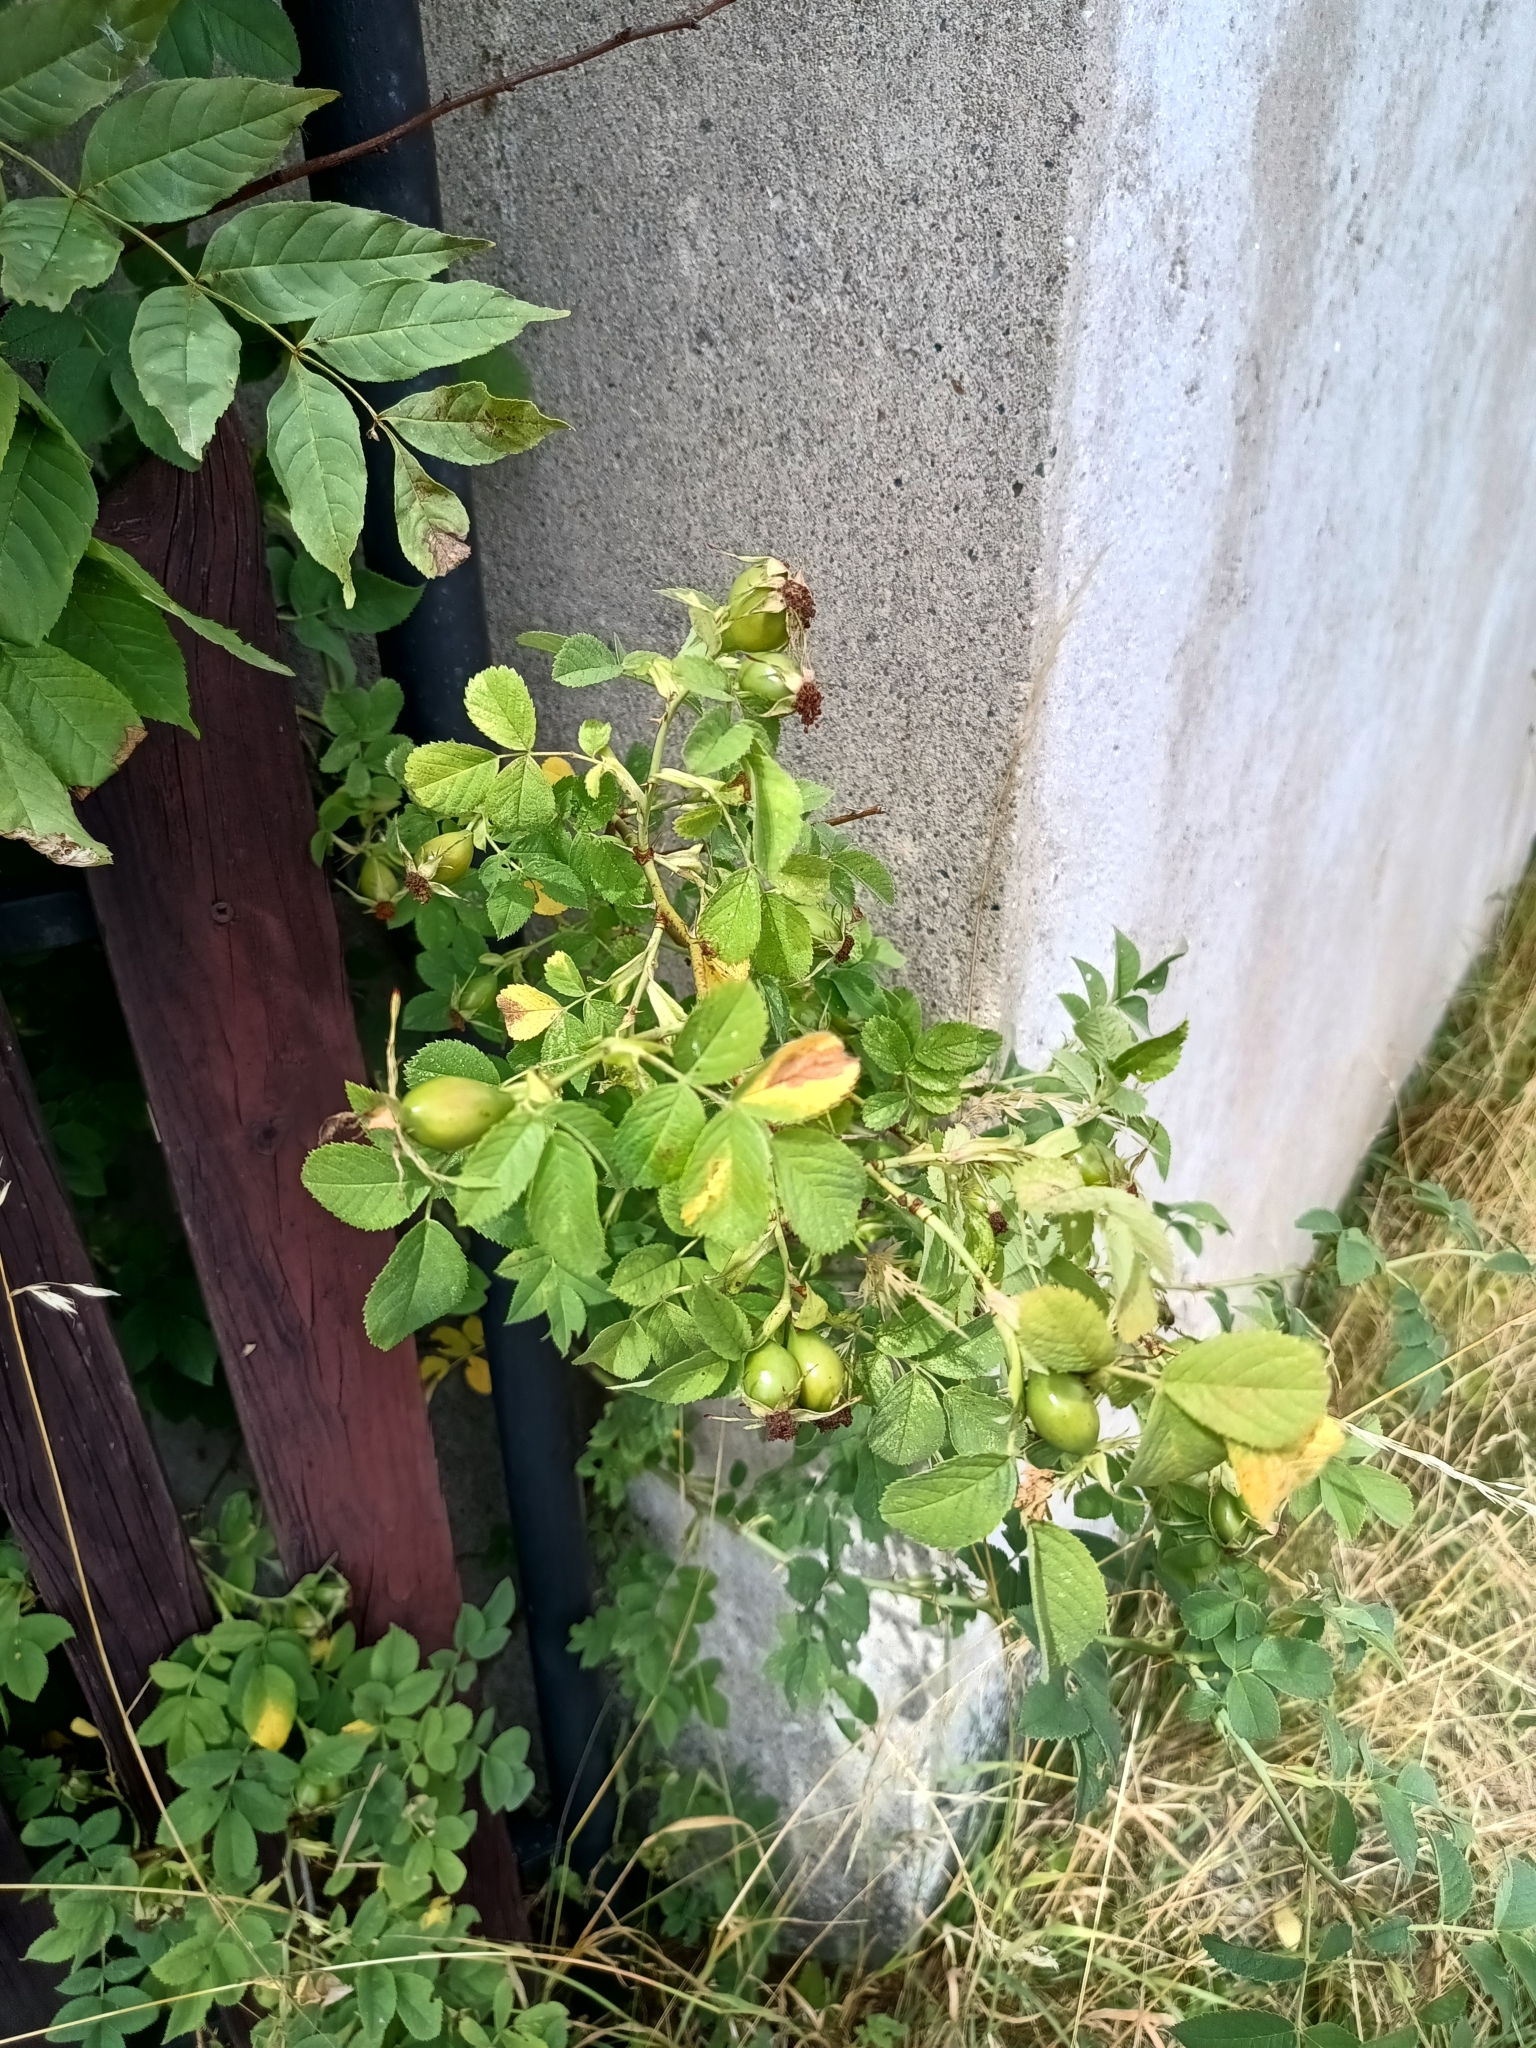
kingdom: Plantae
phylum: Tracheophyta
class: Magnoliopsida
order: Rosales
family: Rosaceae
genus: Rosa
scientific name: Rosa subcollina
